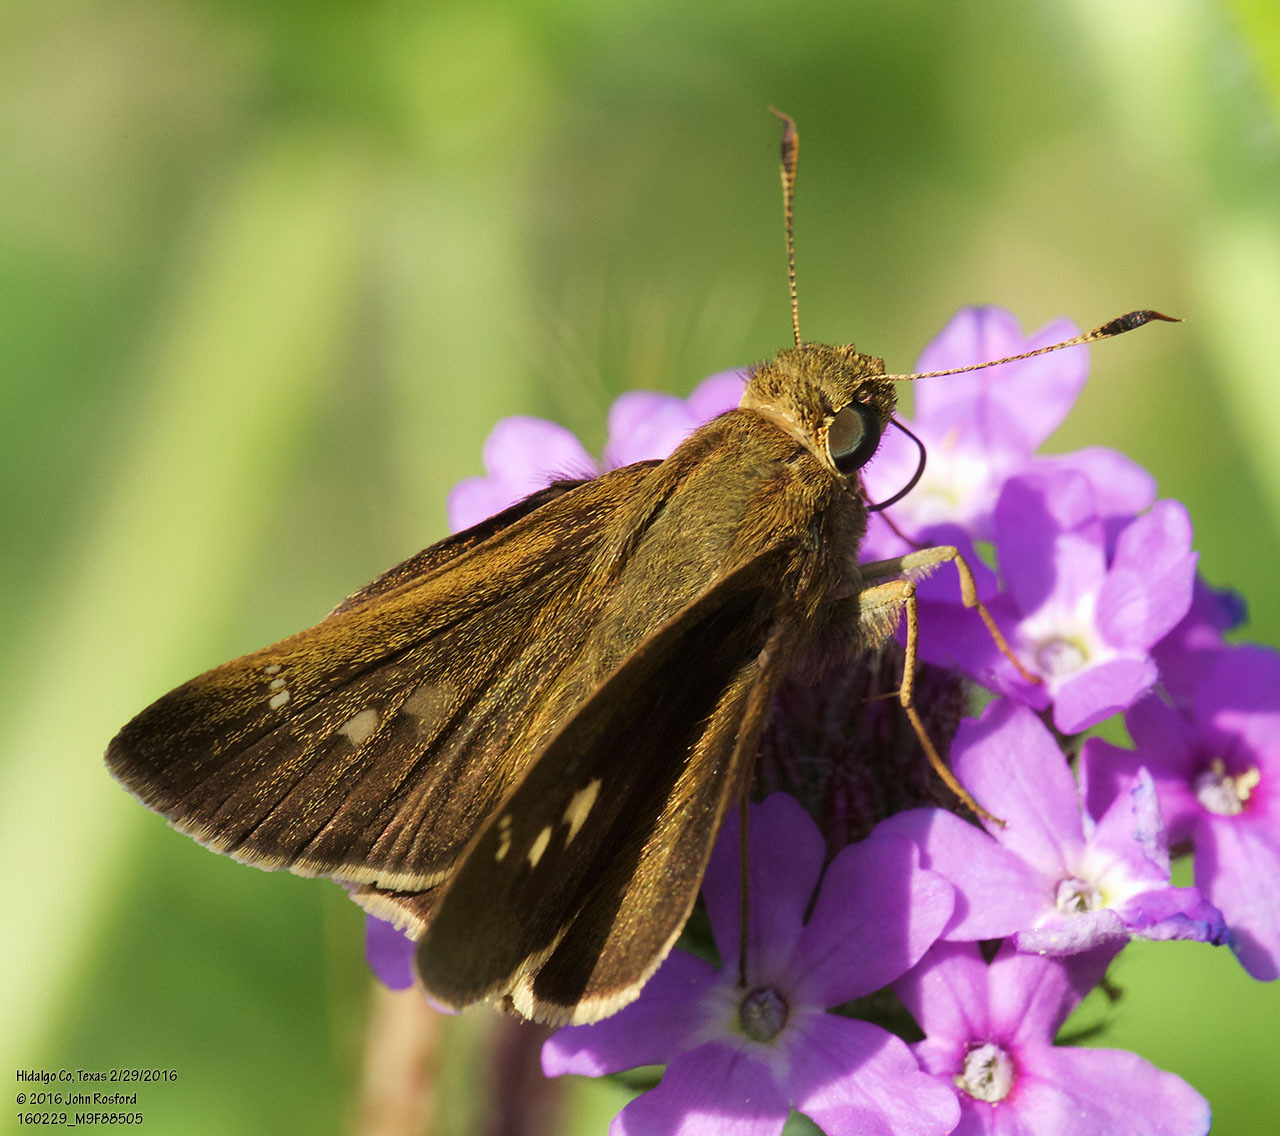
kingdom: Animalia
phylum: Arthropoda
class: Insecta
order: Lepidoptera
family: Hesperiidae
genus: Decinea
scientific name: Decinea percosius
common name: Double-dotted skipper
